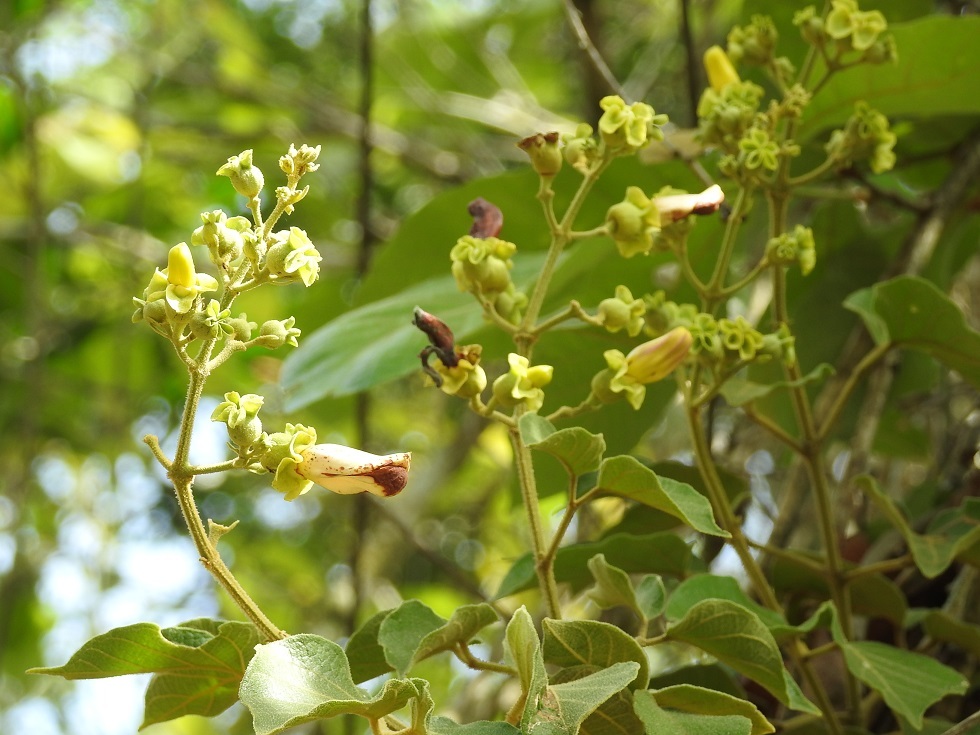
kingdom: Plantae
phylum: Tracheophyta
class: Magnoliopsida
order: Lamiales
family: Bignoniaceae
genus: Amphilophium
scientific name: Amphilophium paniculatum
